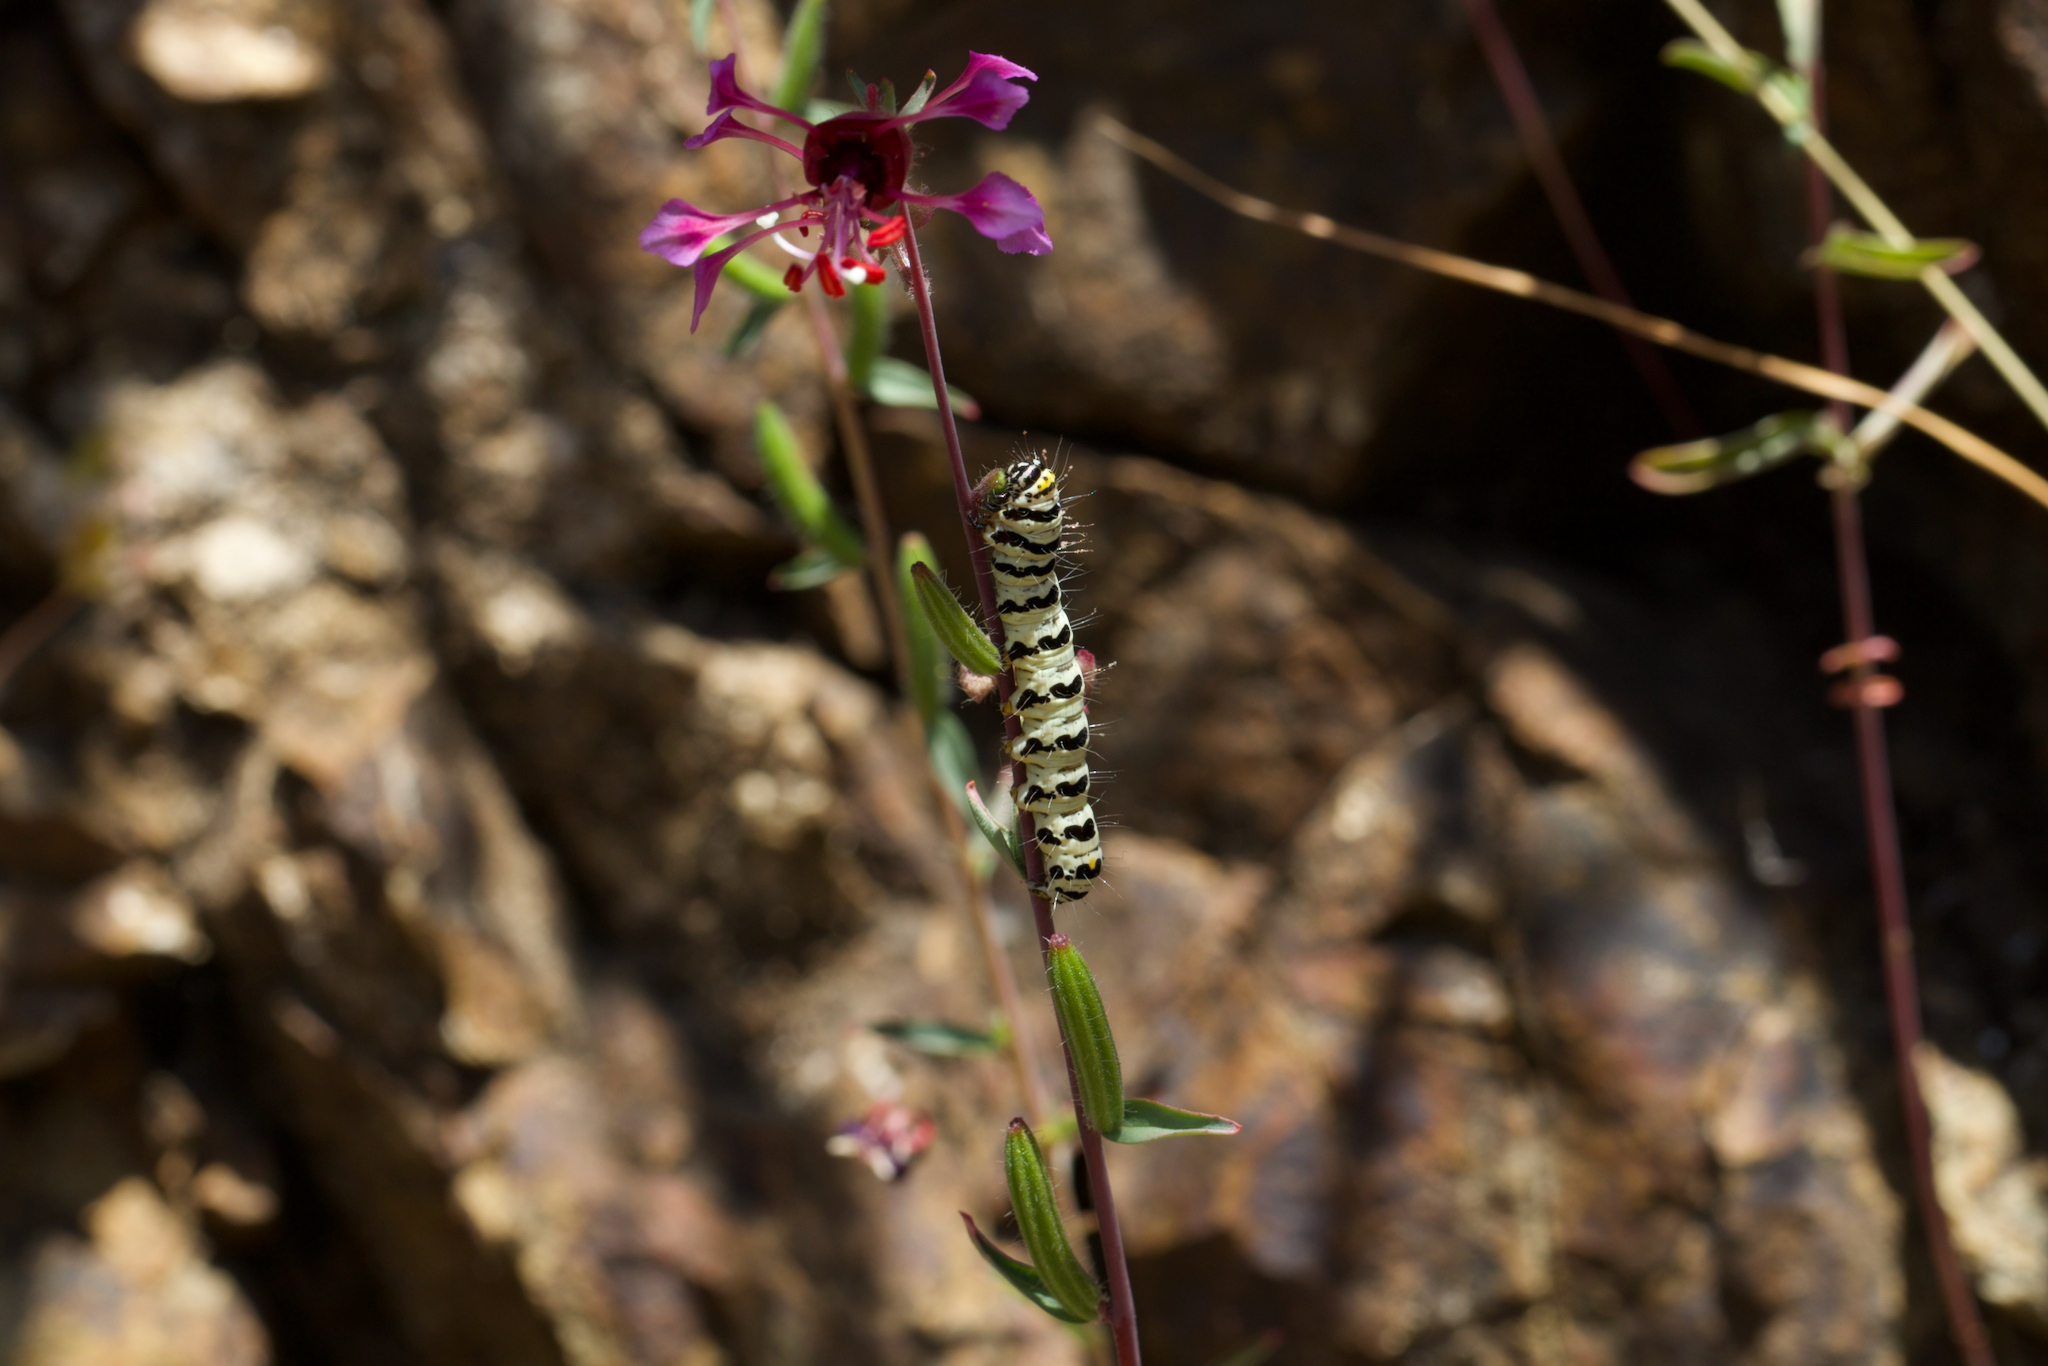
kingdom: Animalia
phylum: Arthropoda
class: Insecta
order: Lepidoptera
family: Noctuidae
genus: Alypia
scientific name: Alypia mariposa
